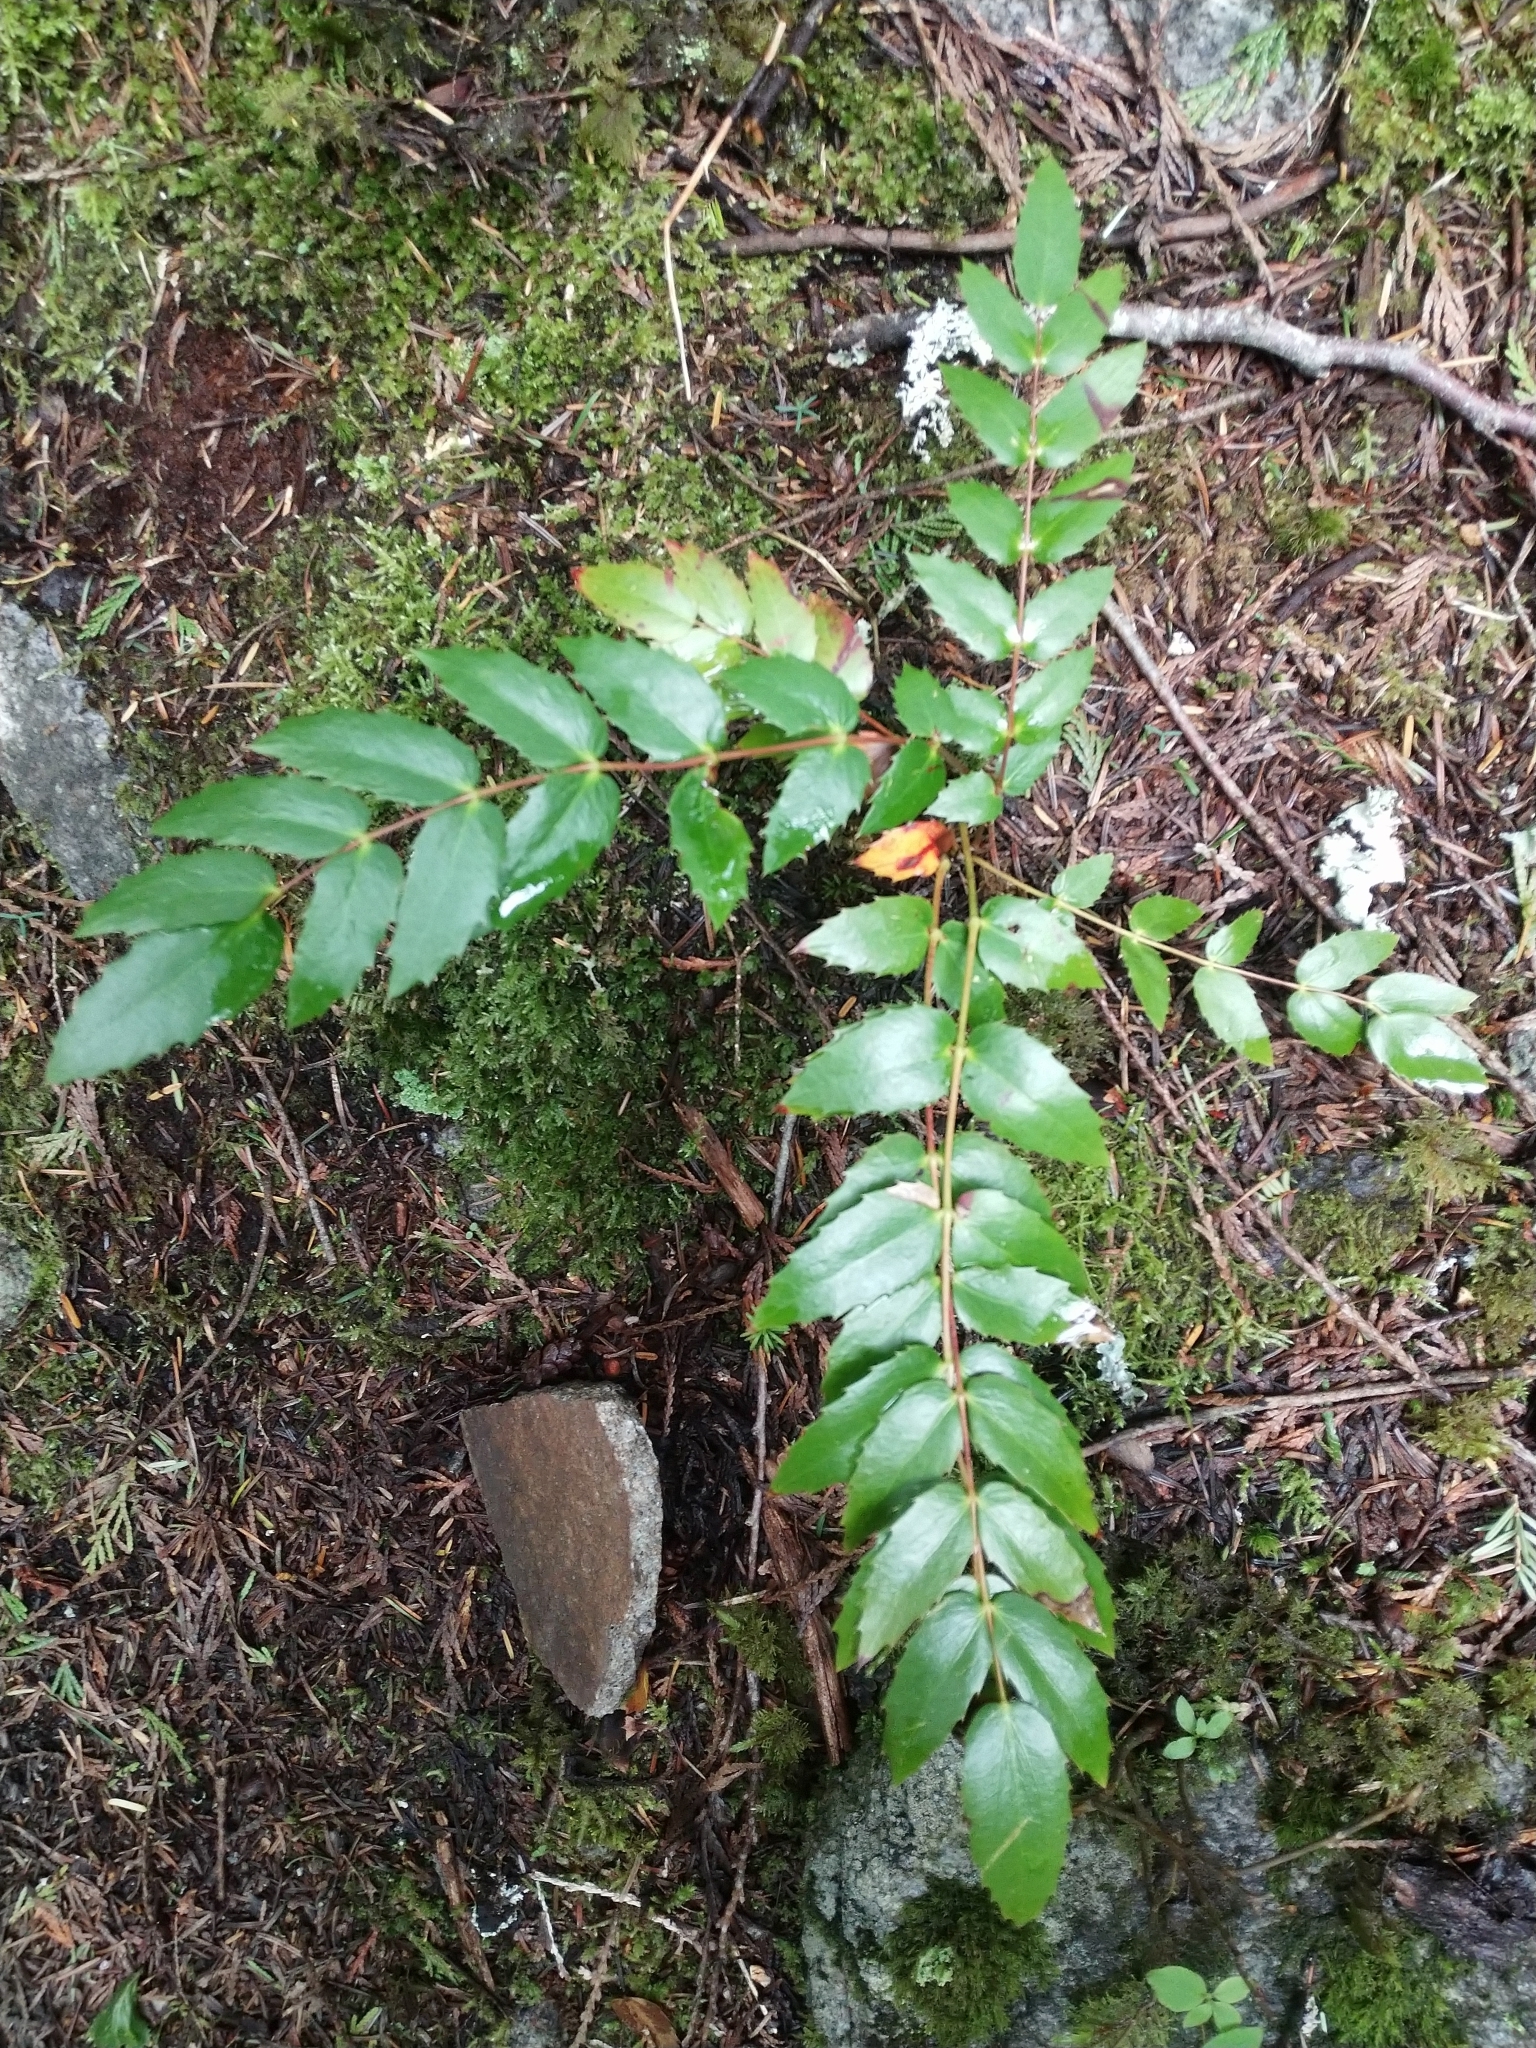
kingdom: Plantae
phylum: Tracheophyta
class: Magnoliopsida
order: Ranunculales
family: Berberidaceae
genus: Mahonia
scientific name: Mahonia nervosa
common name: Cascade oregon-grape
